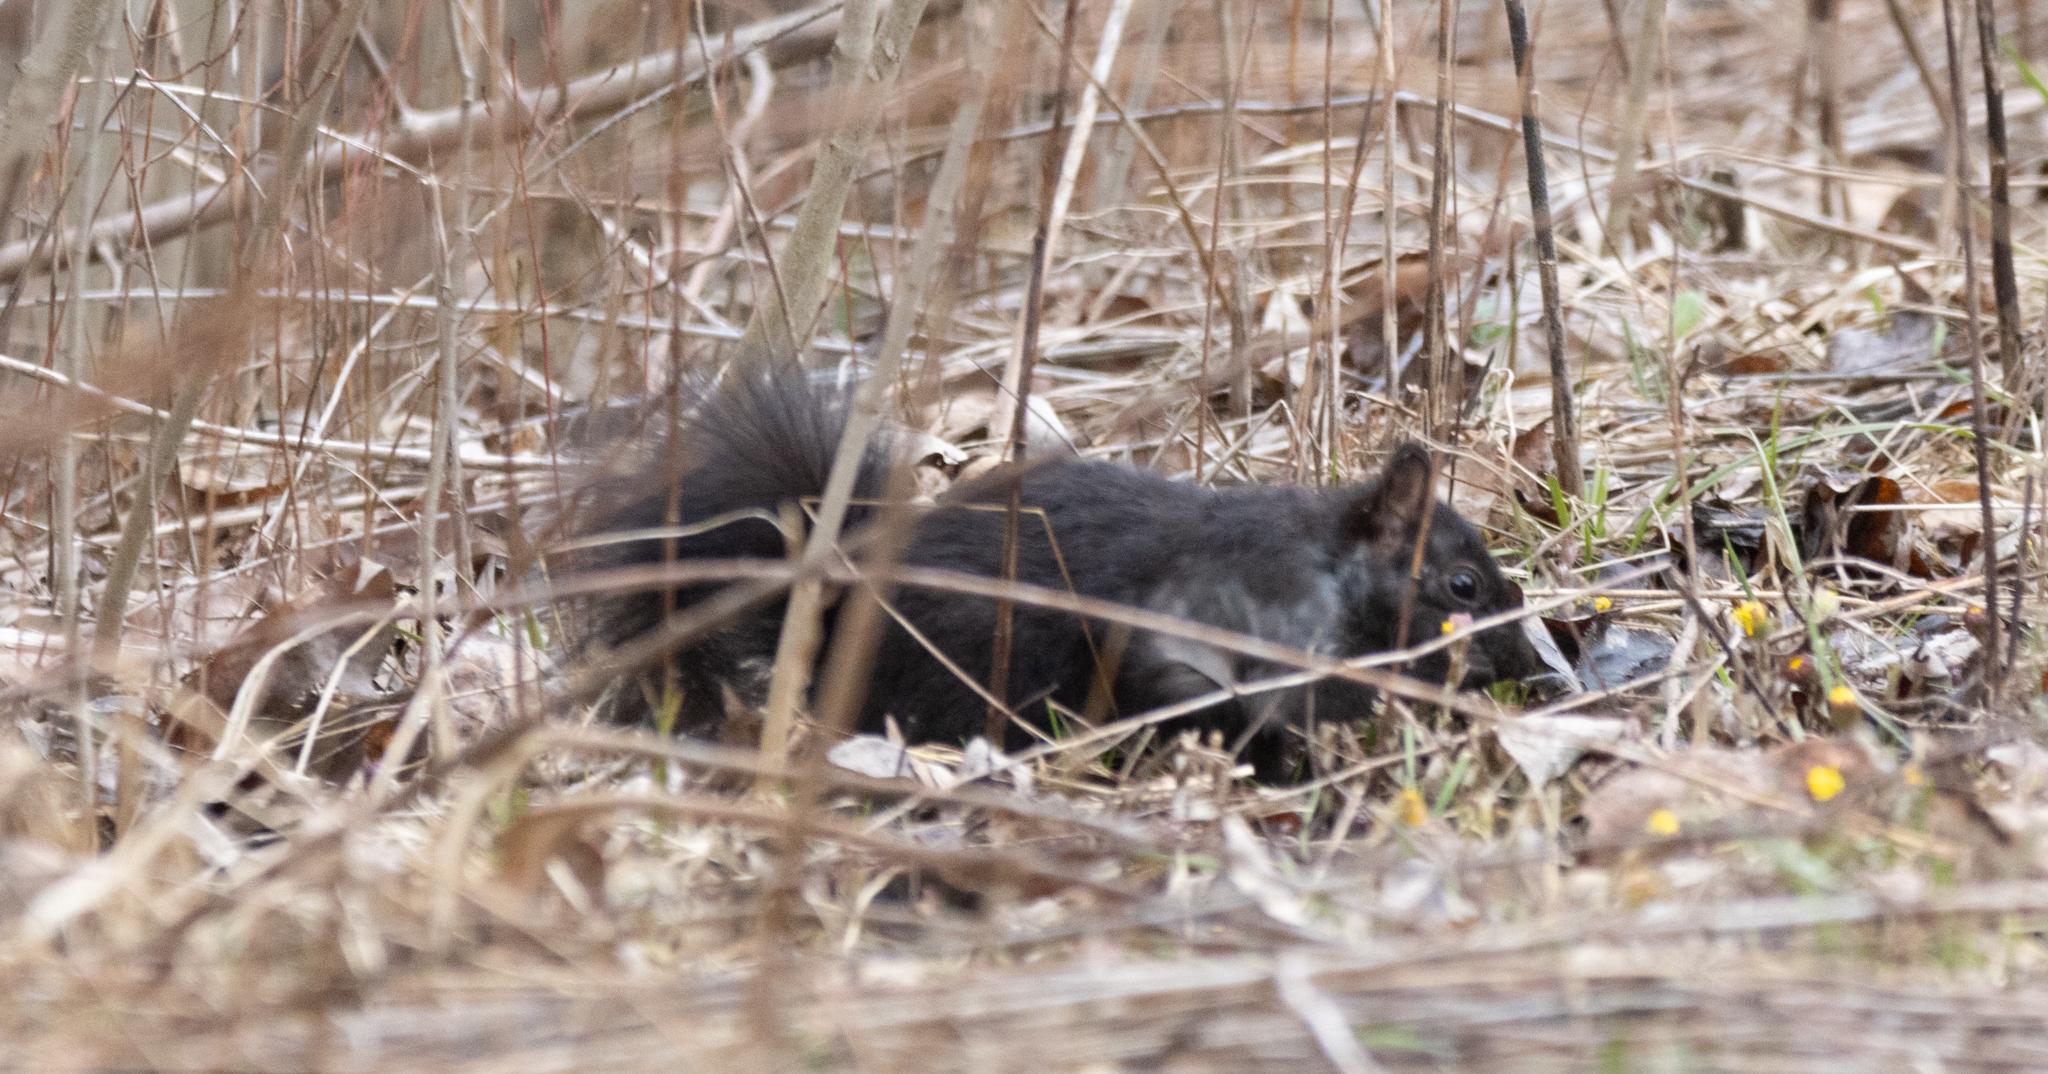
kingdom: Animalia
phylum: Chordata
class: Mammalia
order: Rodentia
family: Sciuridae
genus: Sciurus
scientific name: Sciurus carolinensis
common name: Eastern gray squirrel
